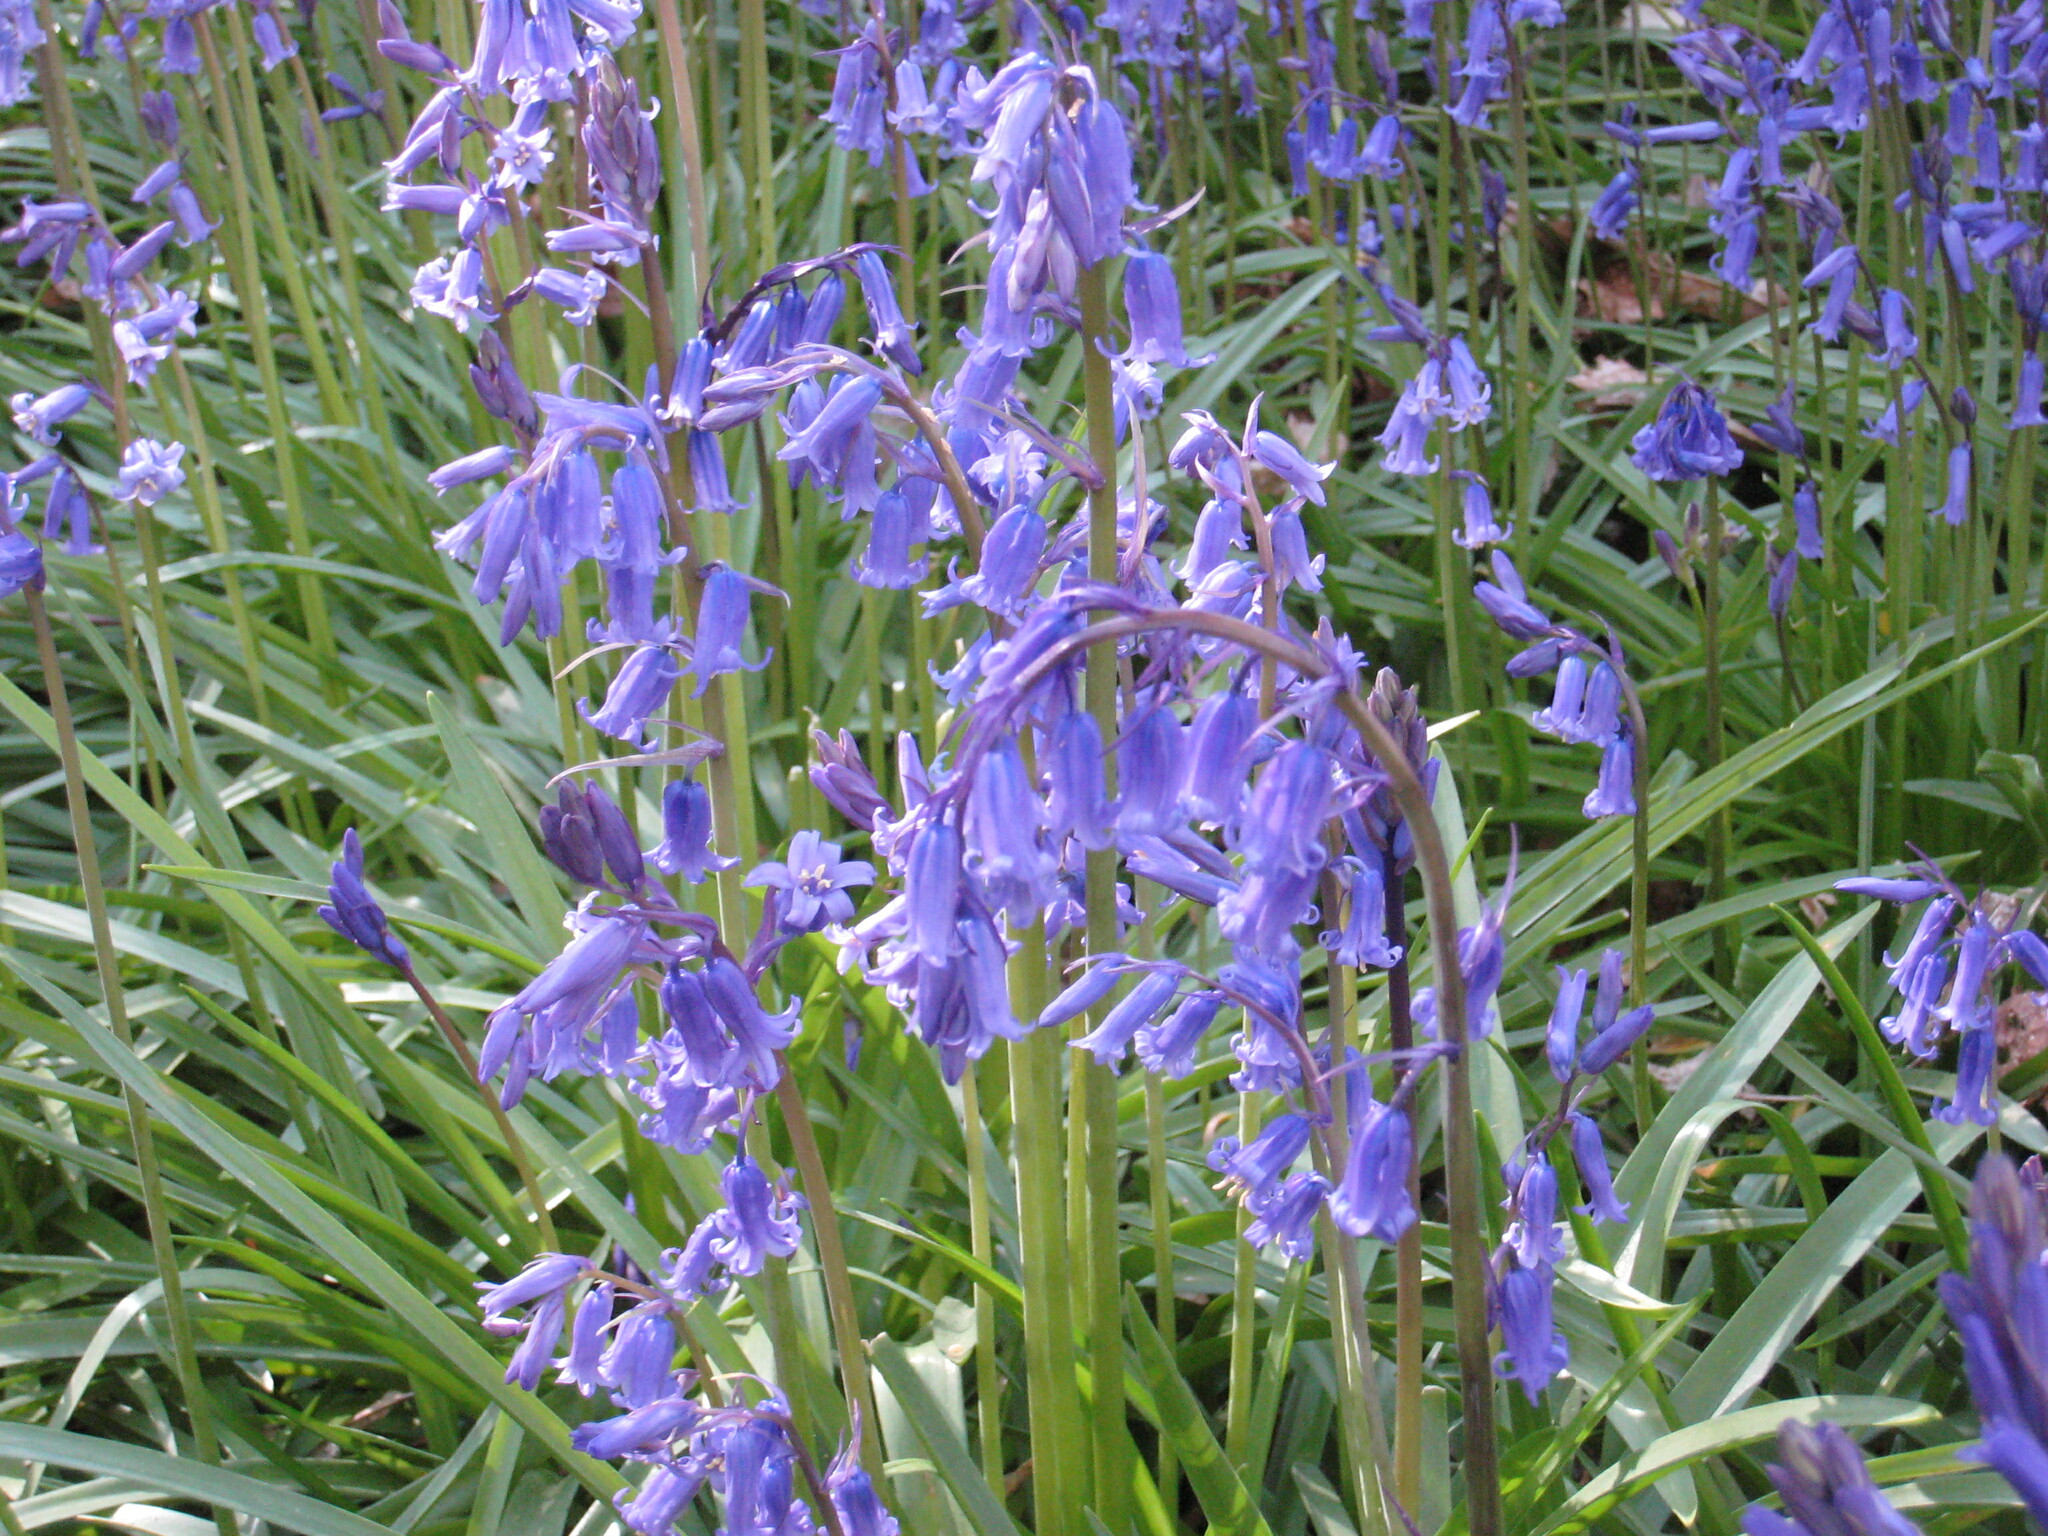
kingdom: Plantae
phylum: Tracheophyta
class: Liliopsida
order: Asparagales
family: Asparagaceae
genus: Hyacinthoides
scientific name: Hyacinthoides non-scripta
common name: Bluebell
